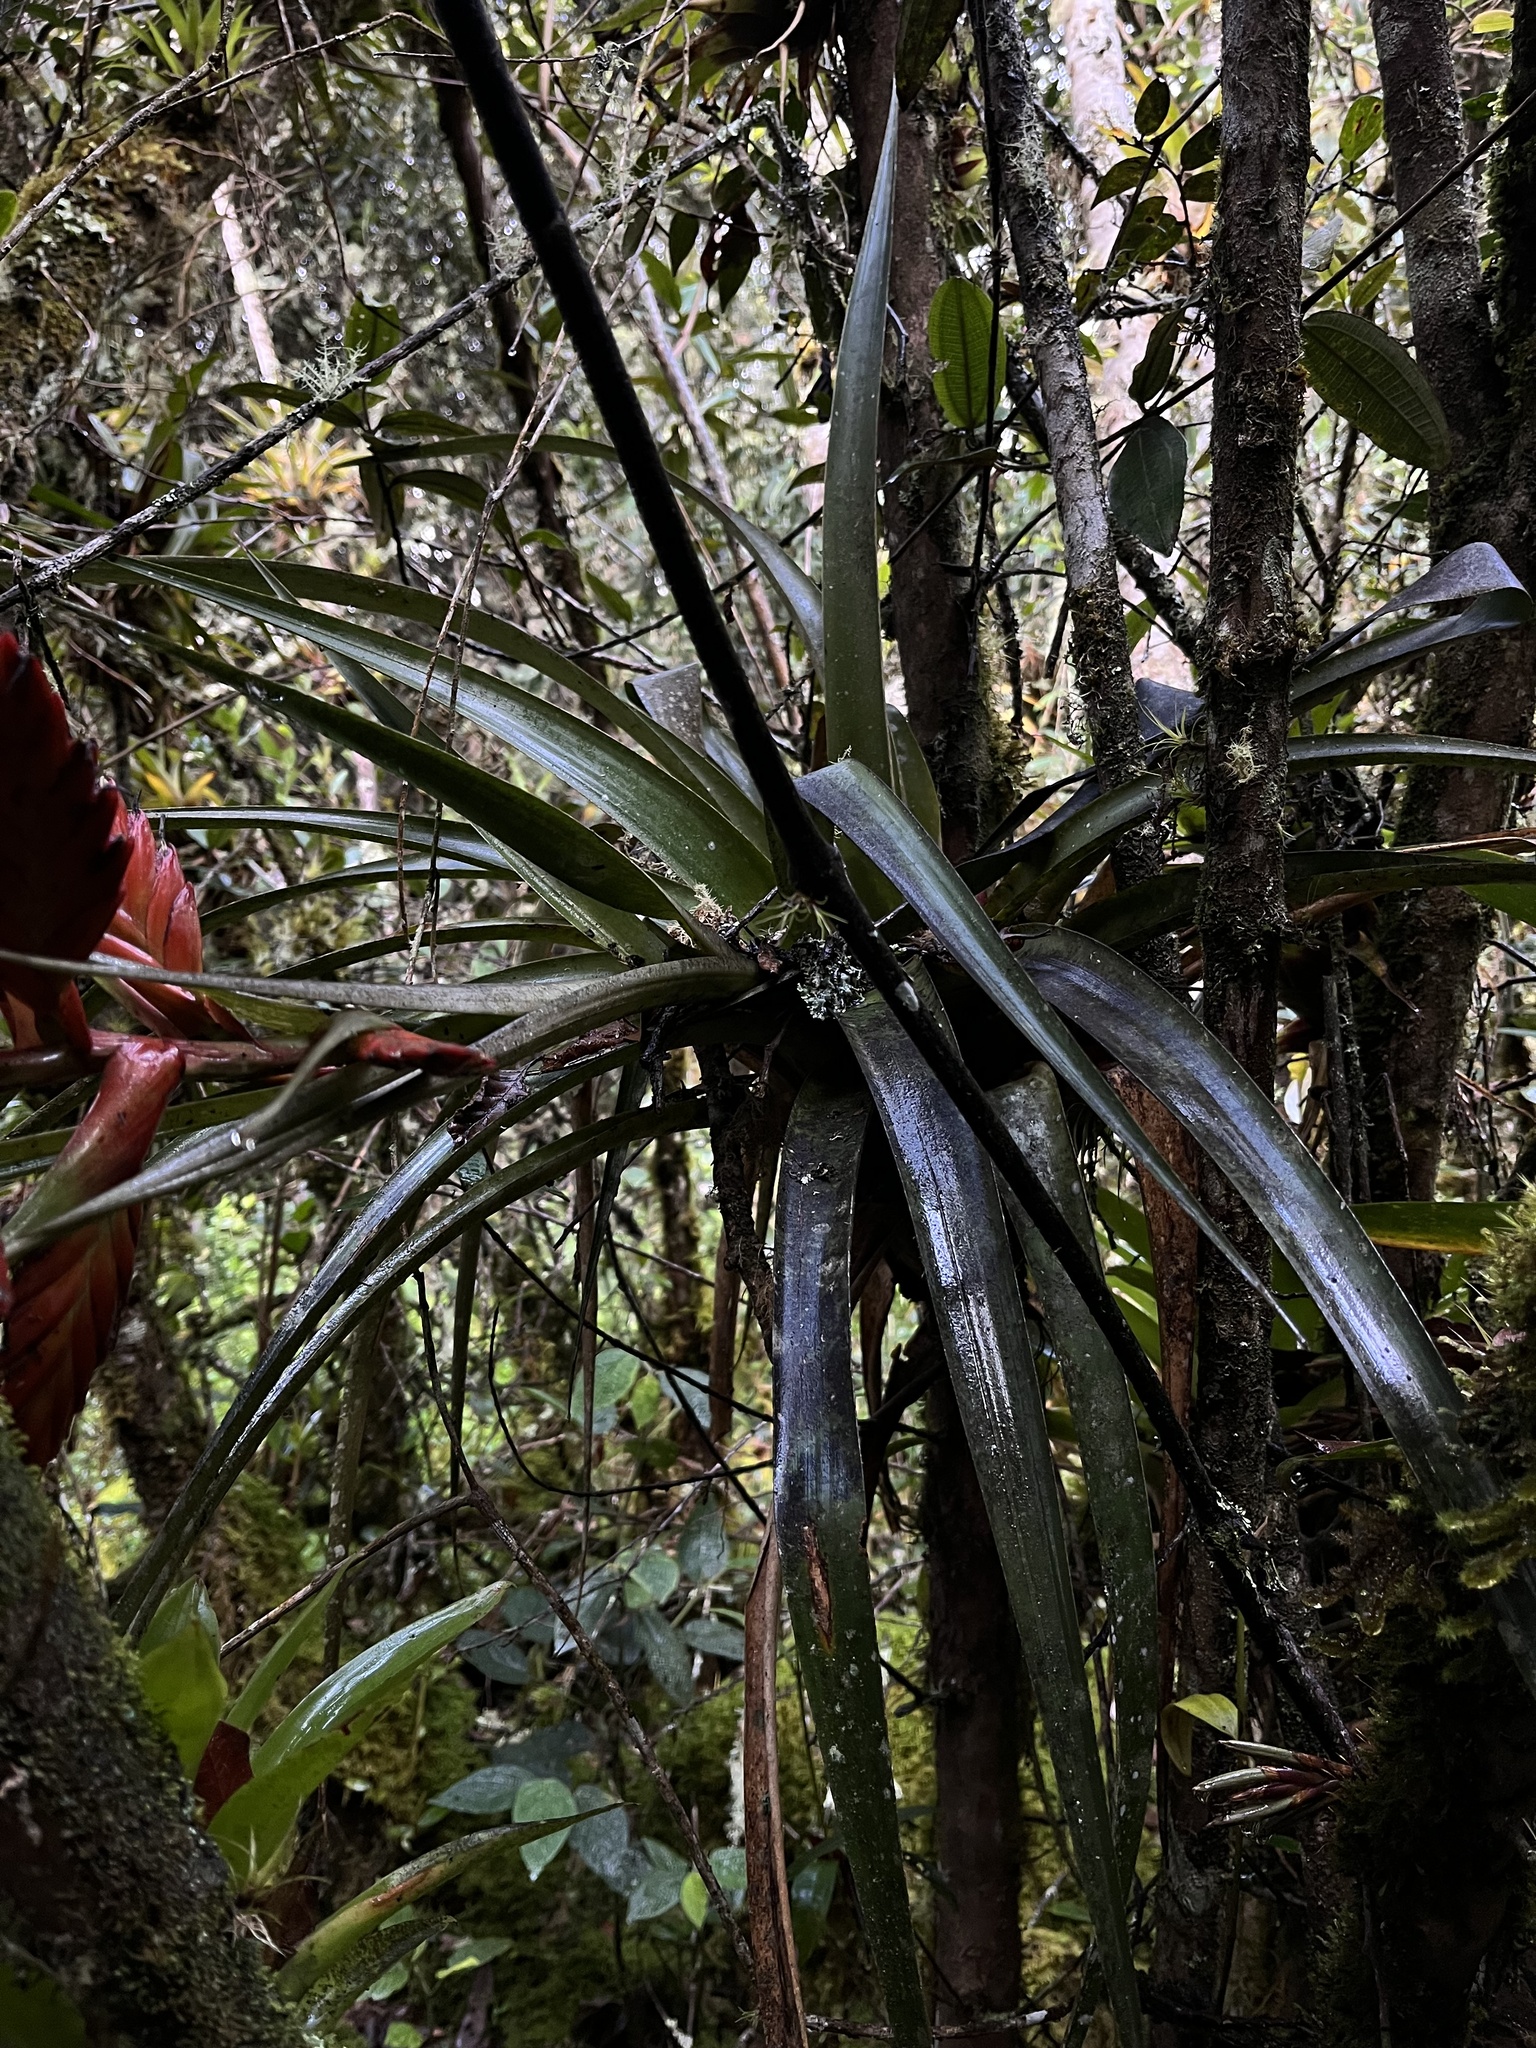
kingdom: Plantae
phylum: Tracheophyta
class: Liliopsida
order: Poales
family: Bromeliaceae
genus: Tillandsia
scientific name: Tillandsia restrepoana
